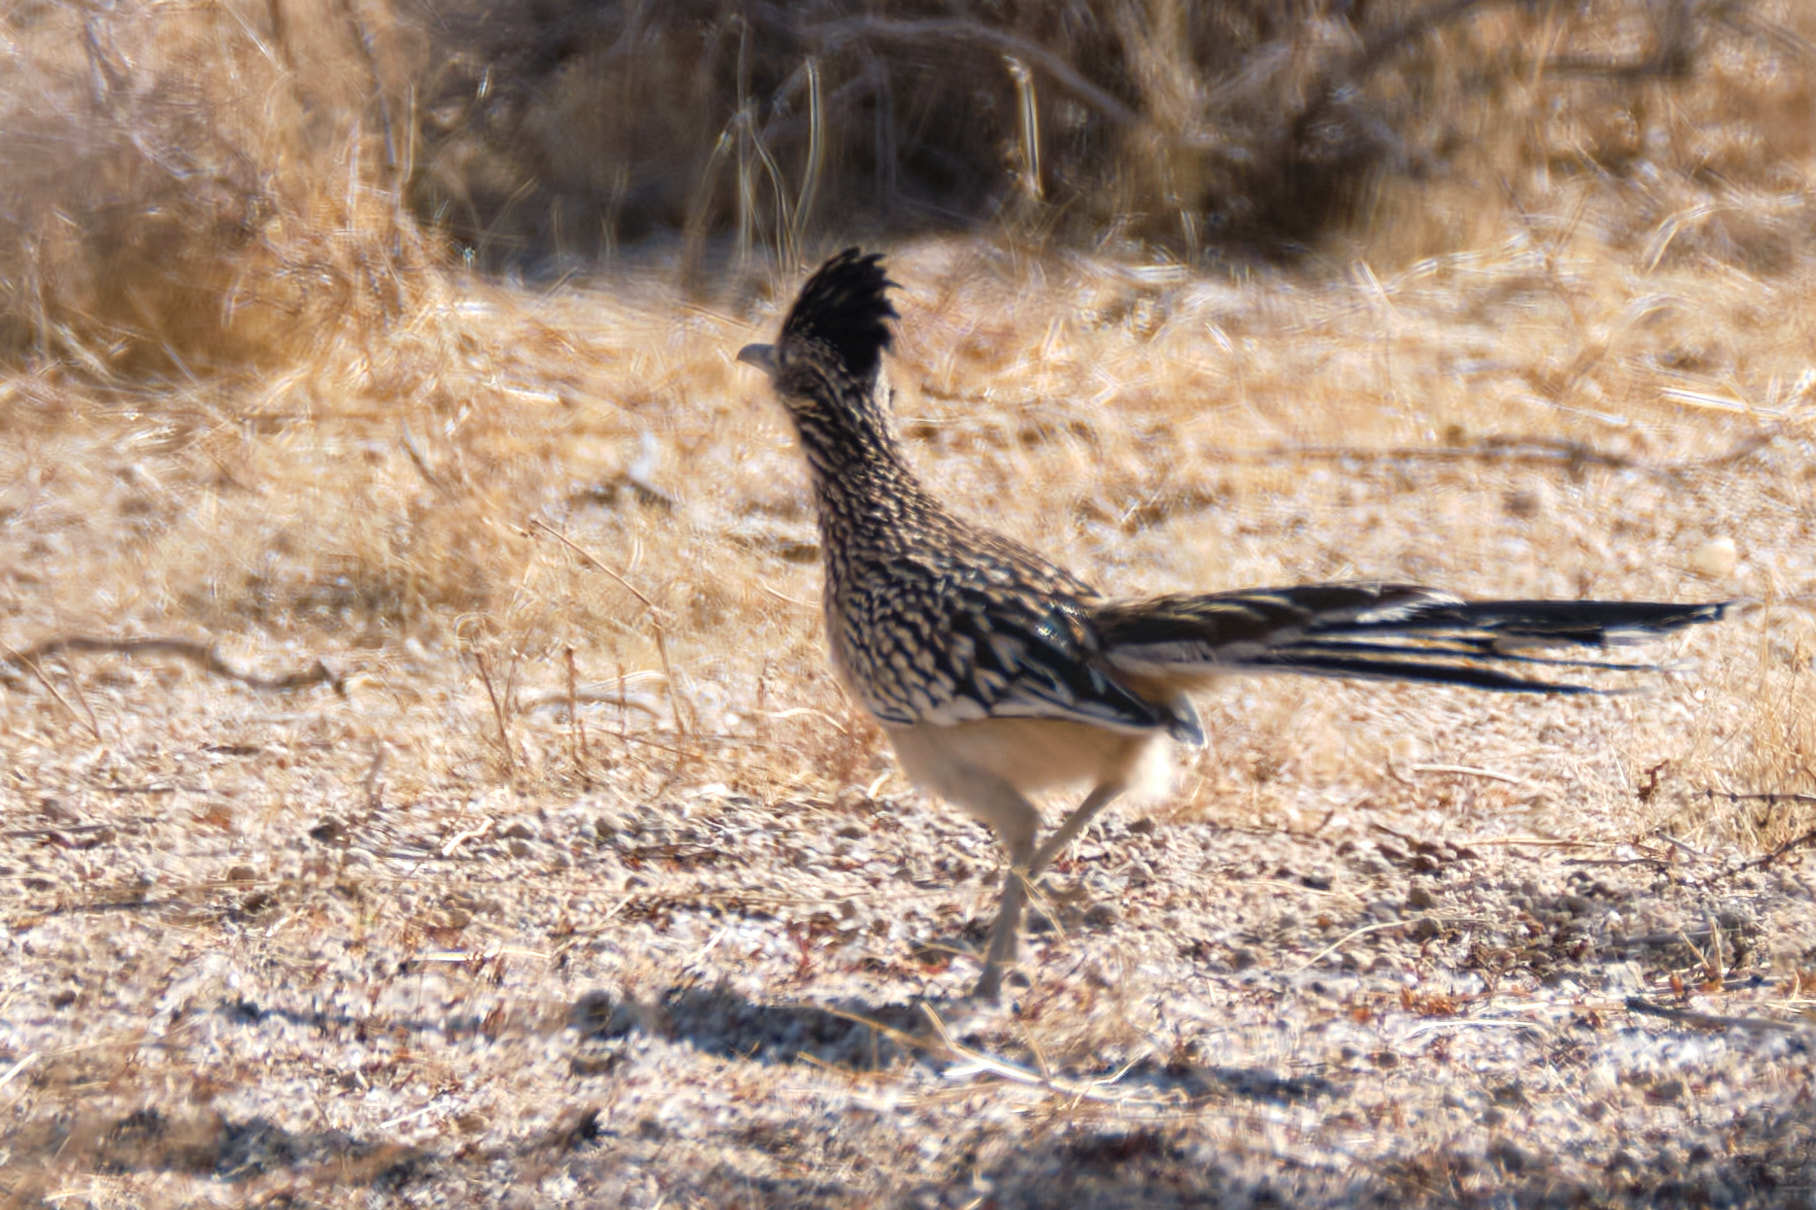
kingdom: Animalia
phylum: Chordata
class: Aves
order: Cuculiformes
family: Cuculidae
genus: Geococcyx
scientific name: Geococcyx californianus
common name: Greater roadrunner
